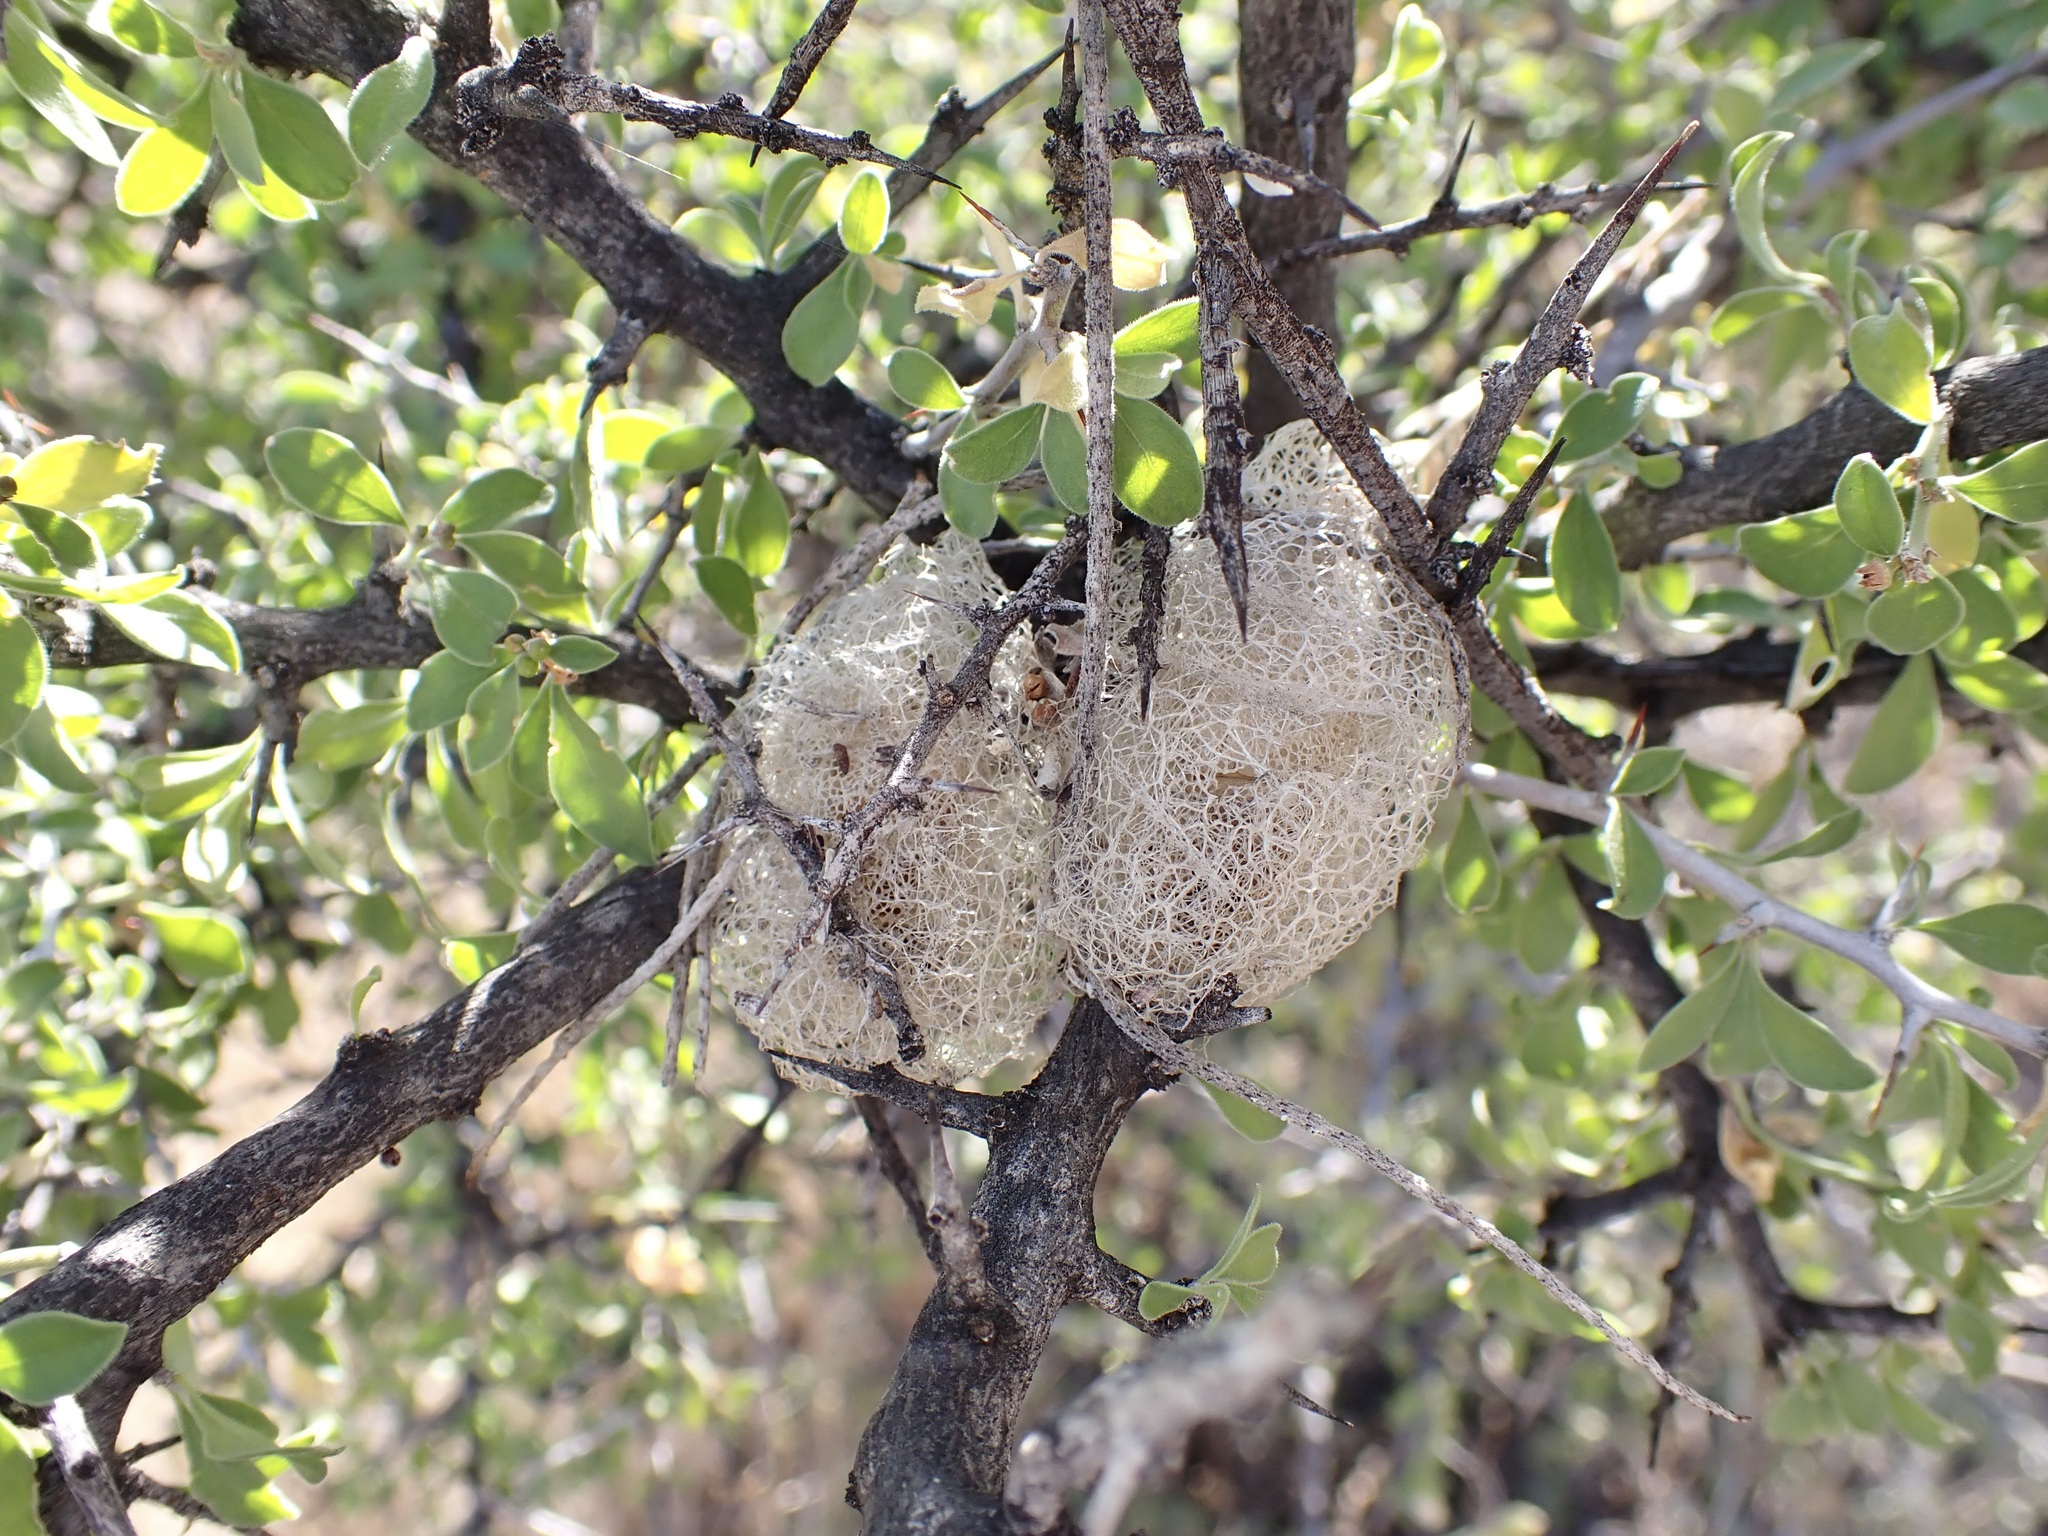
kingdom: Animalia
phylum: Arthropoda
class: Insecta
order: Lepidoptera
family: Saturniidae
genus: Saturnia
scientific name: Saturnia anona
